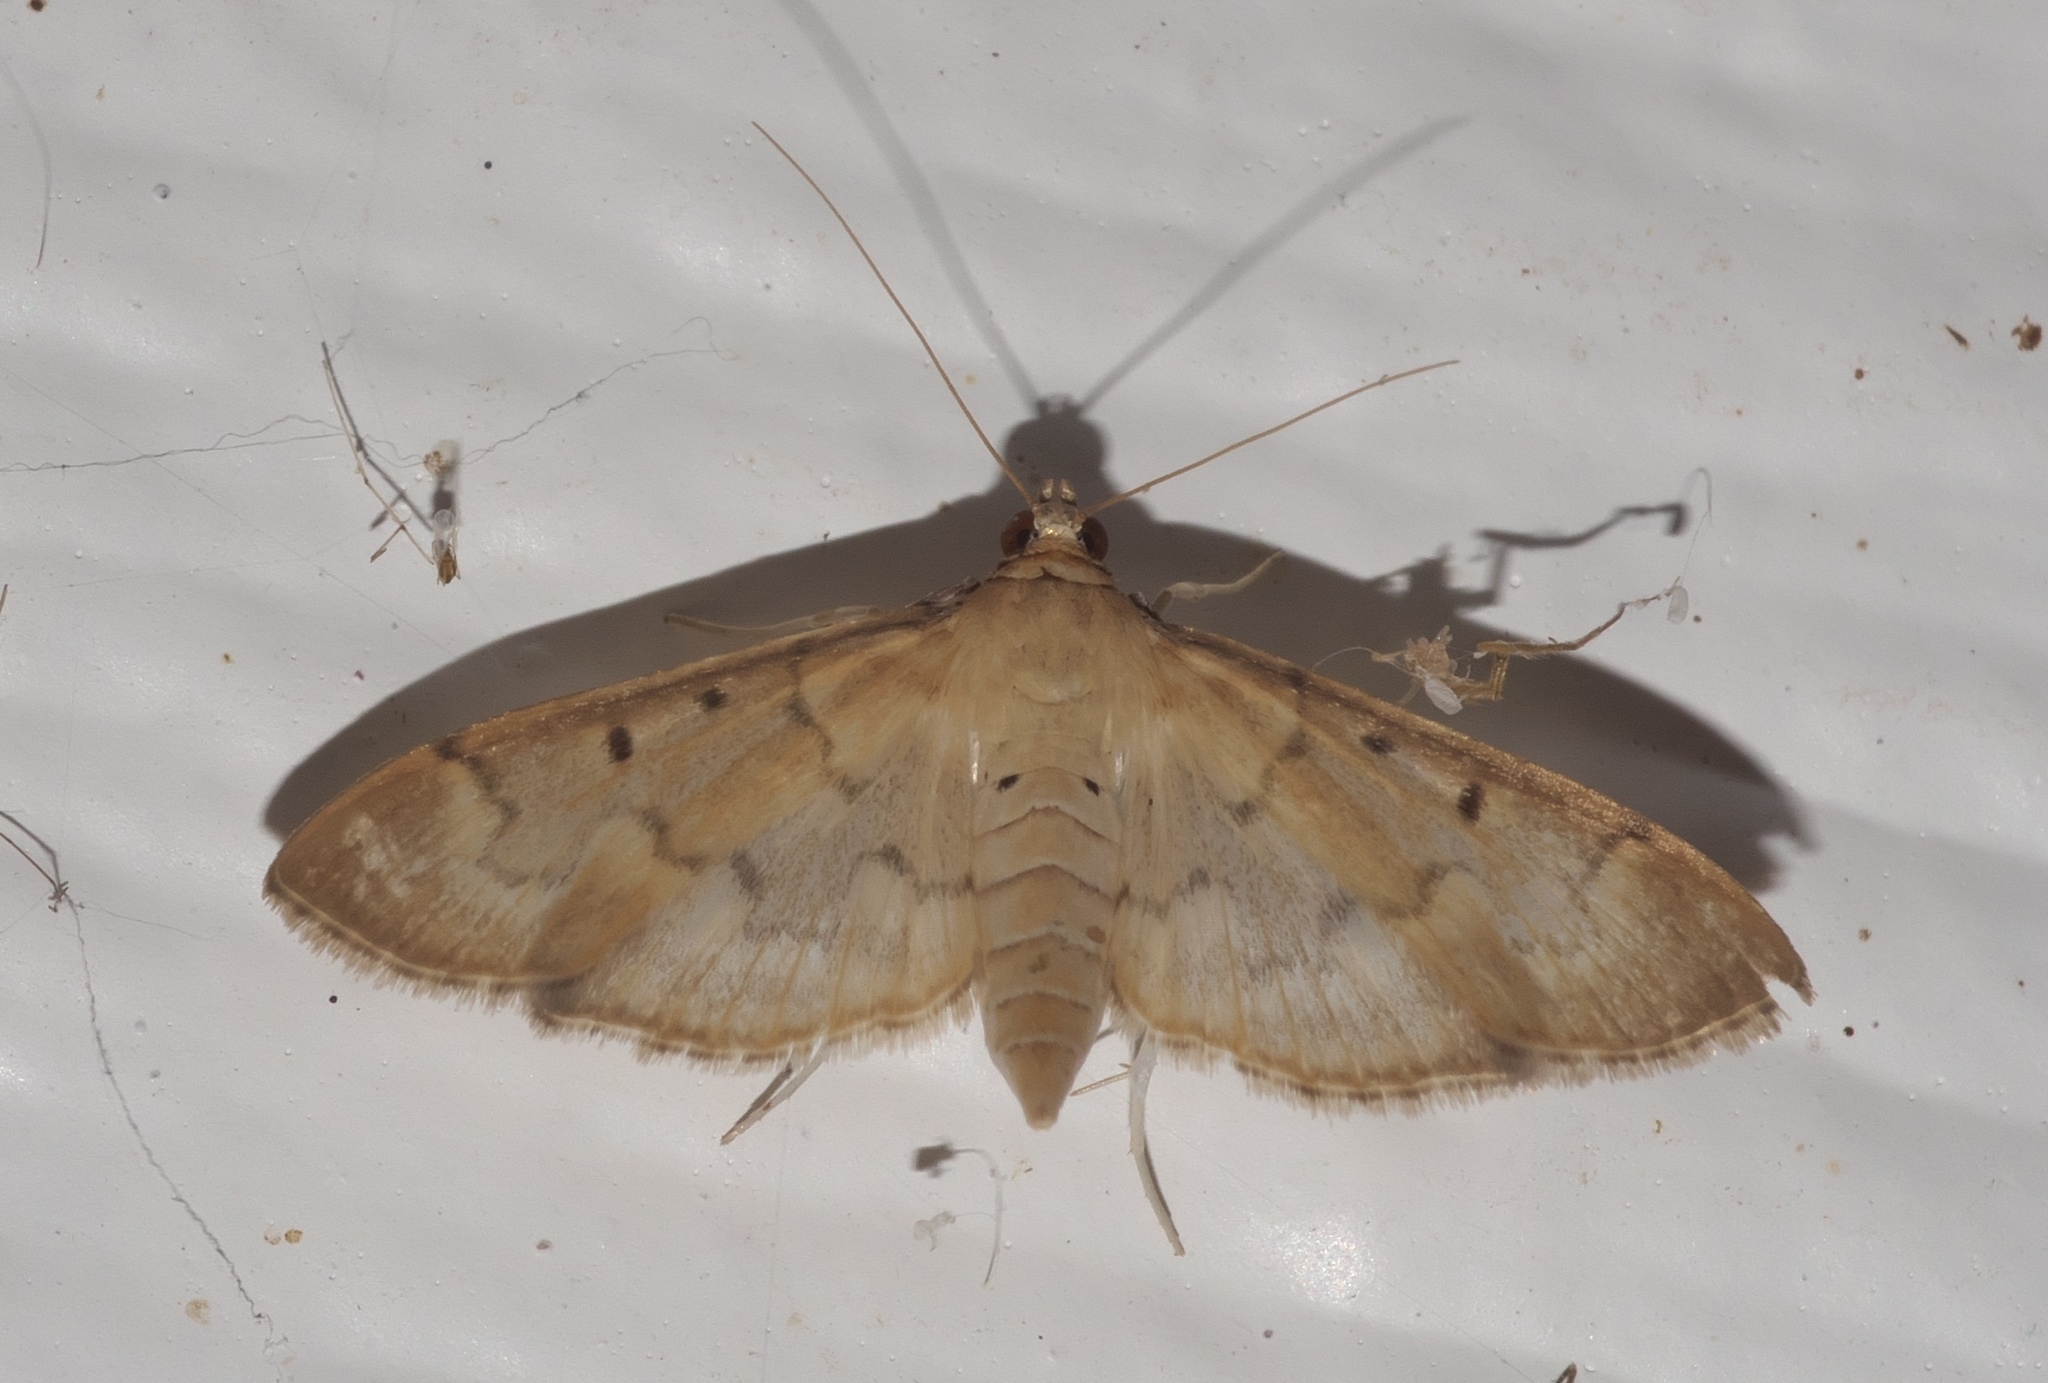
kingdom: Animalia
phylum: Arthropoda
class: Insecta
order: Lepidoptera
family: Crambidae
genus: Herpetogramma
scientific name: Herpetogramma bipunctalis
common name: Southern beet webworm
